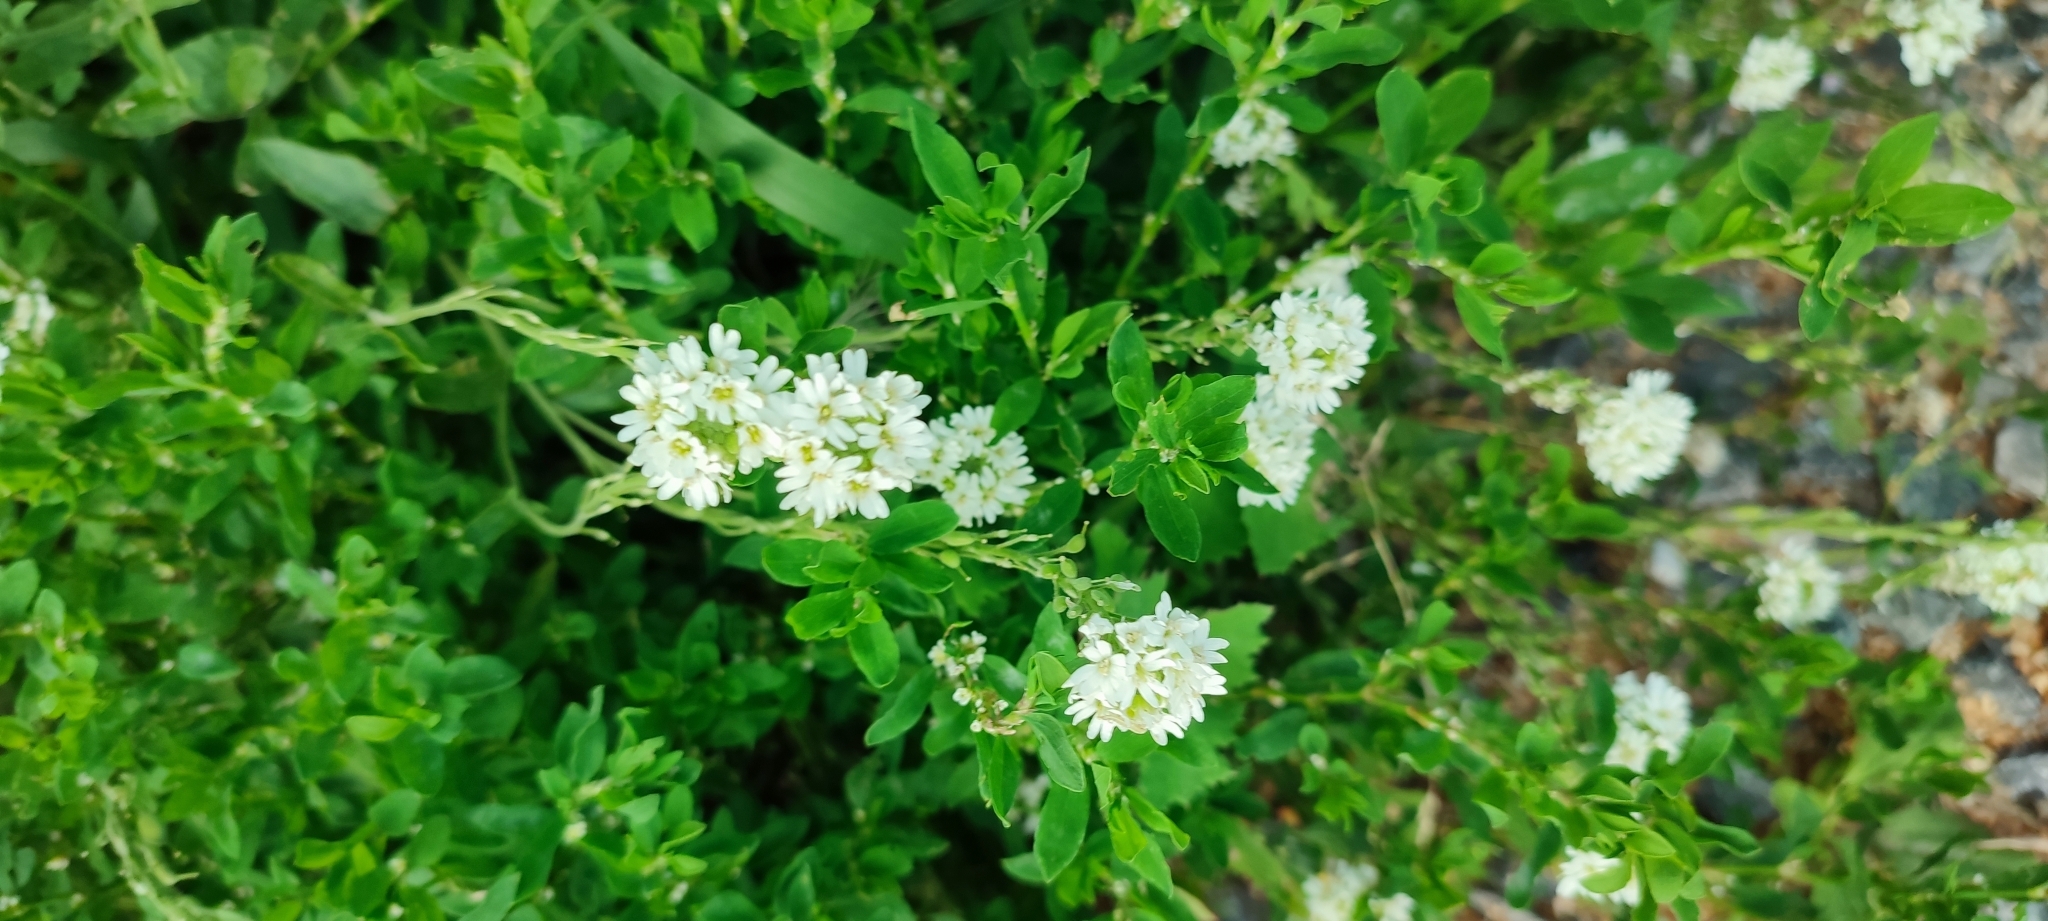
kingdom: Plantae
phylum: Tracheophyta
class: Magnoliopsida
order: Brassicales
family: Brassicaceae
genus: Berteroa
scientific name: Berteroa incana
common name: Hoary alison
